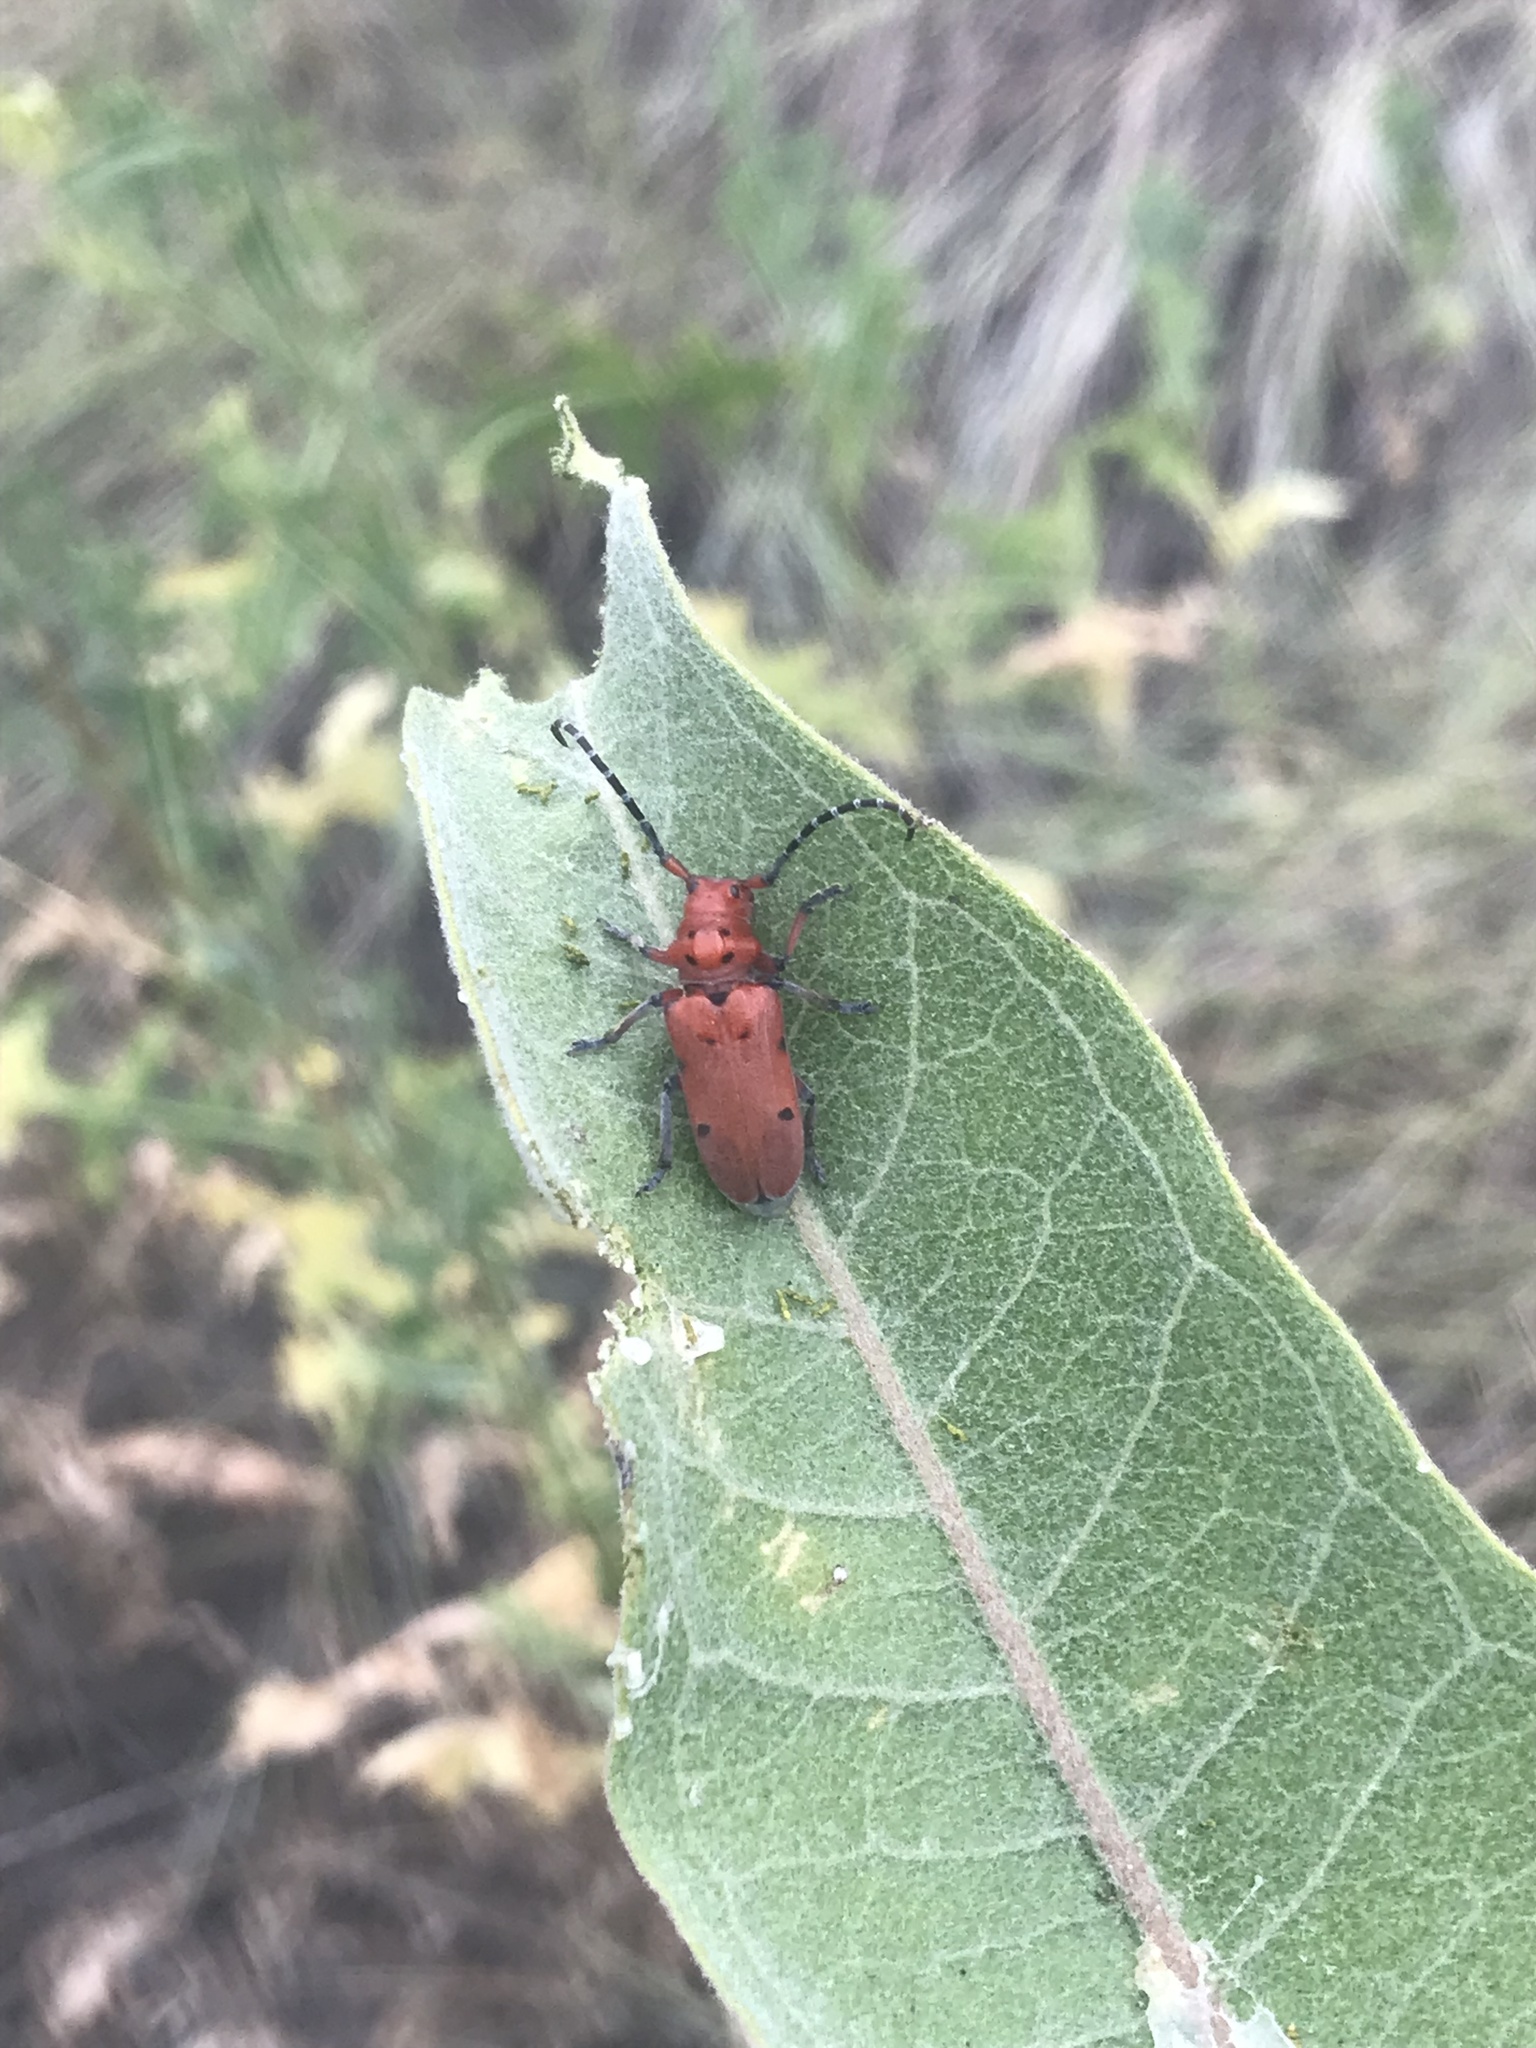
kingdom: Animalia
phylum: Arthropoda
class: Insecta
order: Coleoptera
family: Cerambycidae
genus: Tetraopes
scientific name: Tetraopes femoratus
